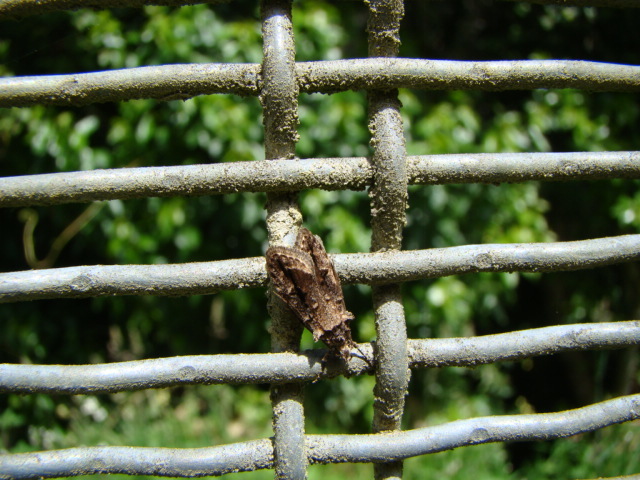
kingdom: Animalia
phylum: Arthropoda
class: Insecta
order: Lepidoptera
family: Oecophoridae
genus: Izatha
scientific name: Izatha caustopa
